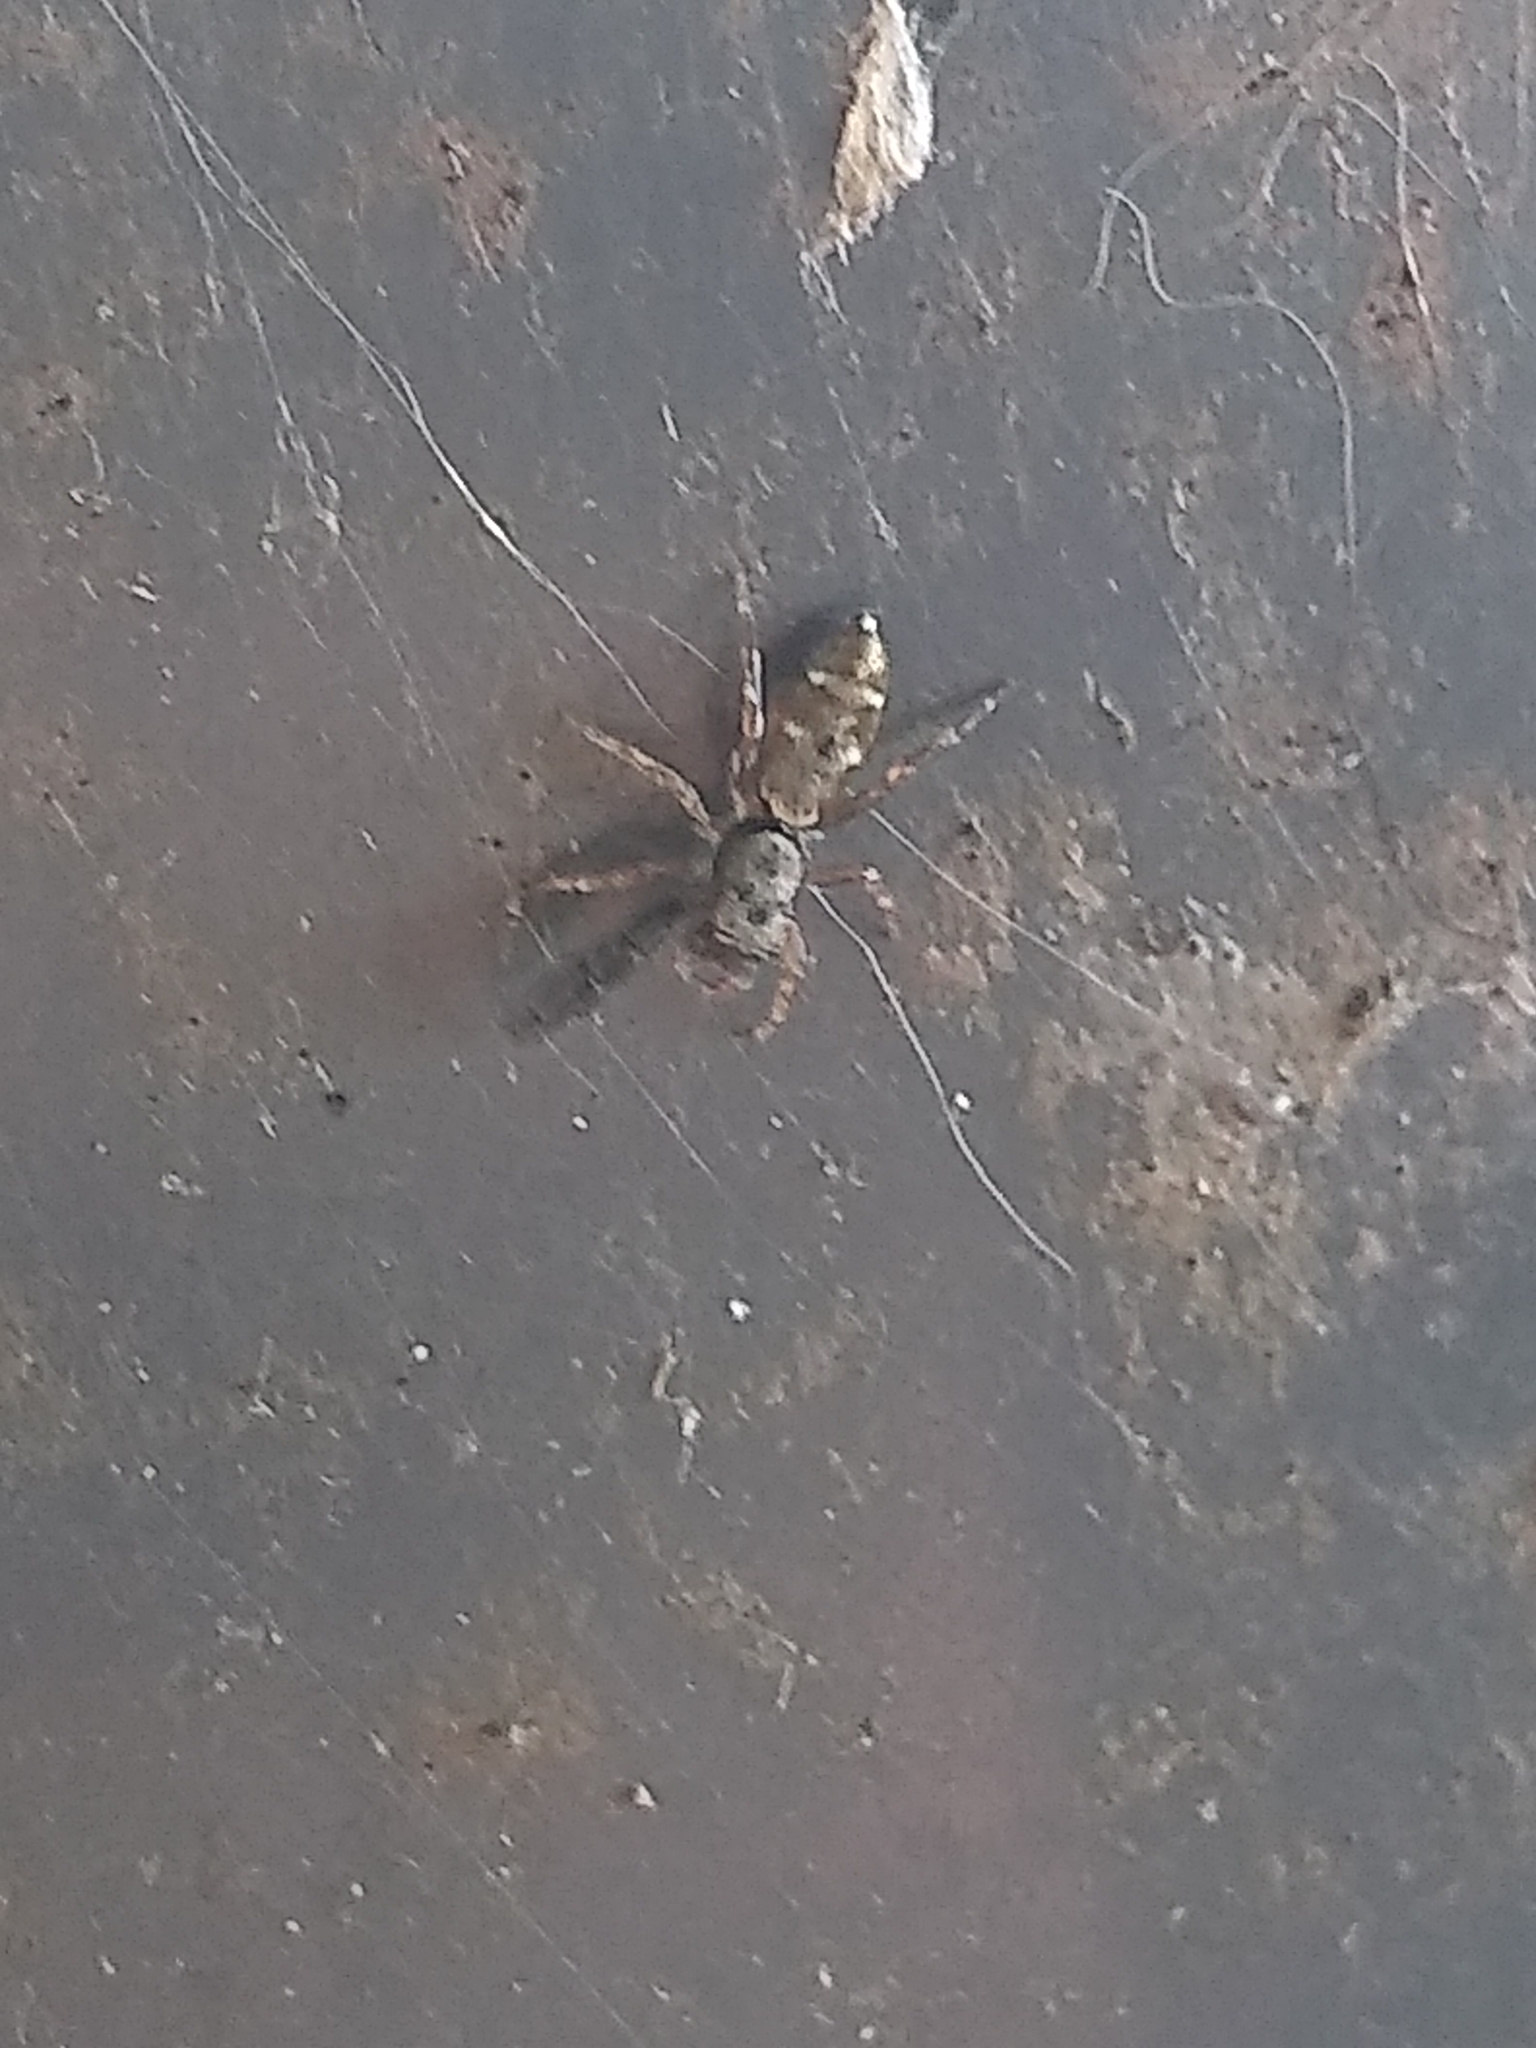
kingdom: Animalia
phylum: Arthropoda
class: Arachnida
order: Araneae
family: Salticidae
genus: Helvetia
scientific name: Helvetia cancrimana
